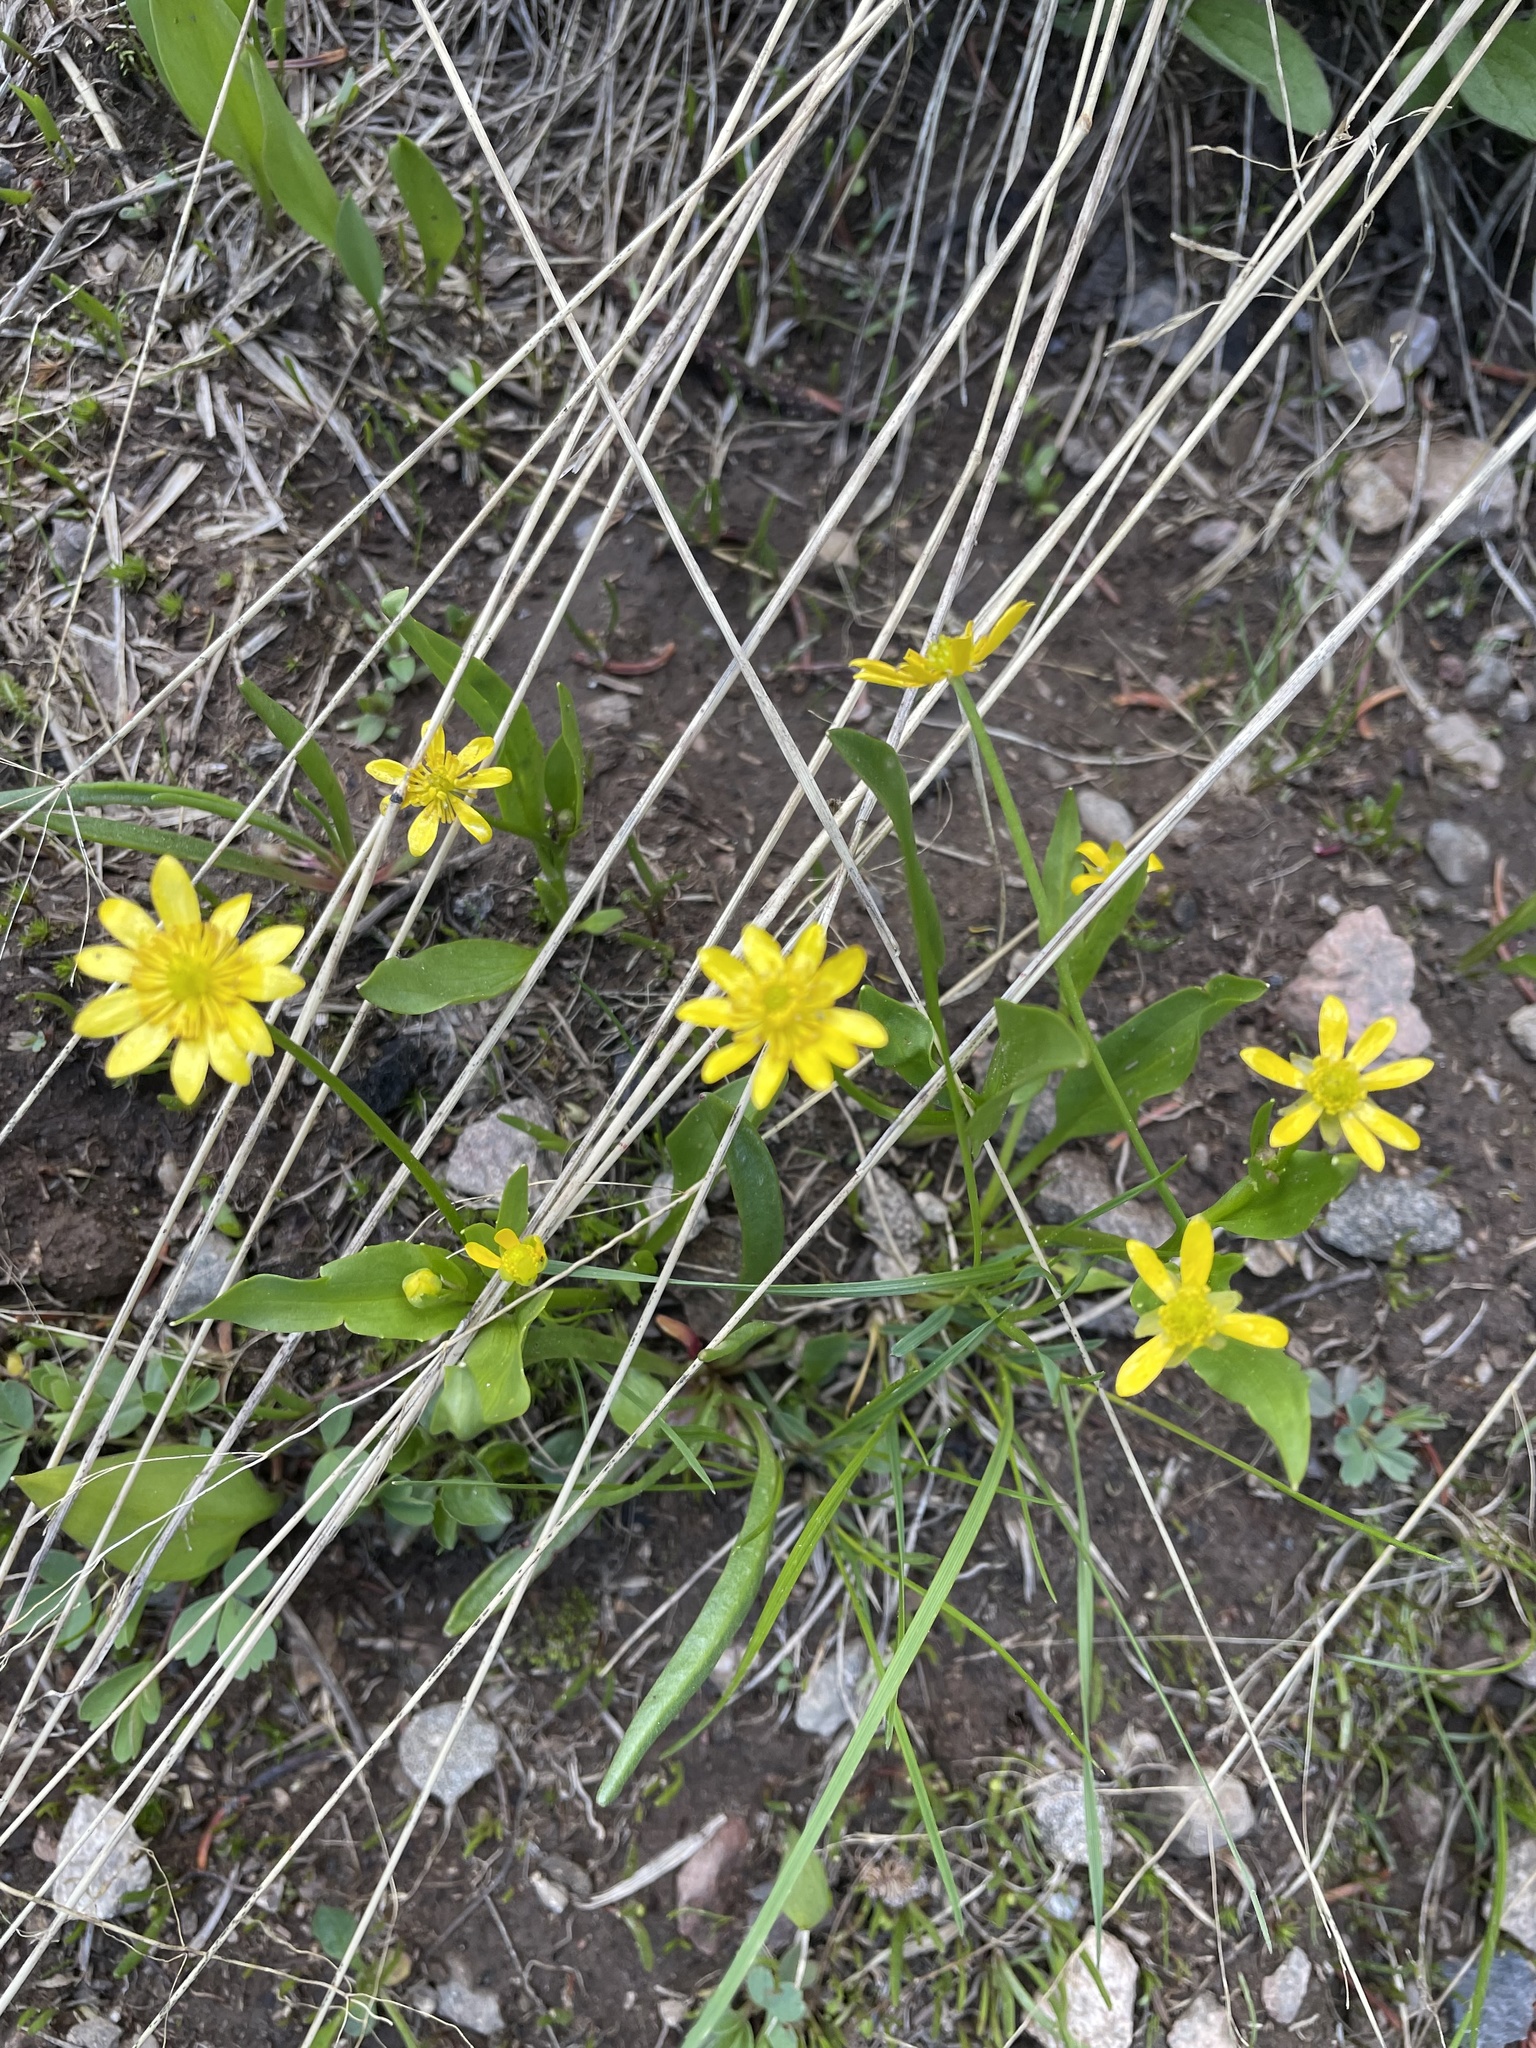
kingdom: Plantae
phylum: Tracheophyta
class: Magnoliopsida
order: Ranunculales
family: Ranunculaceae
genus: Ranunculus
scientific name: Ranunculus alismifolius
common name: Plantain-leaved buttercup
